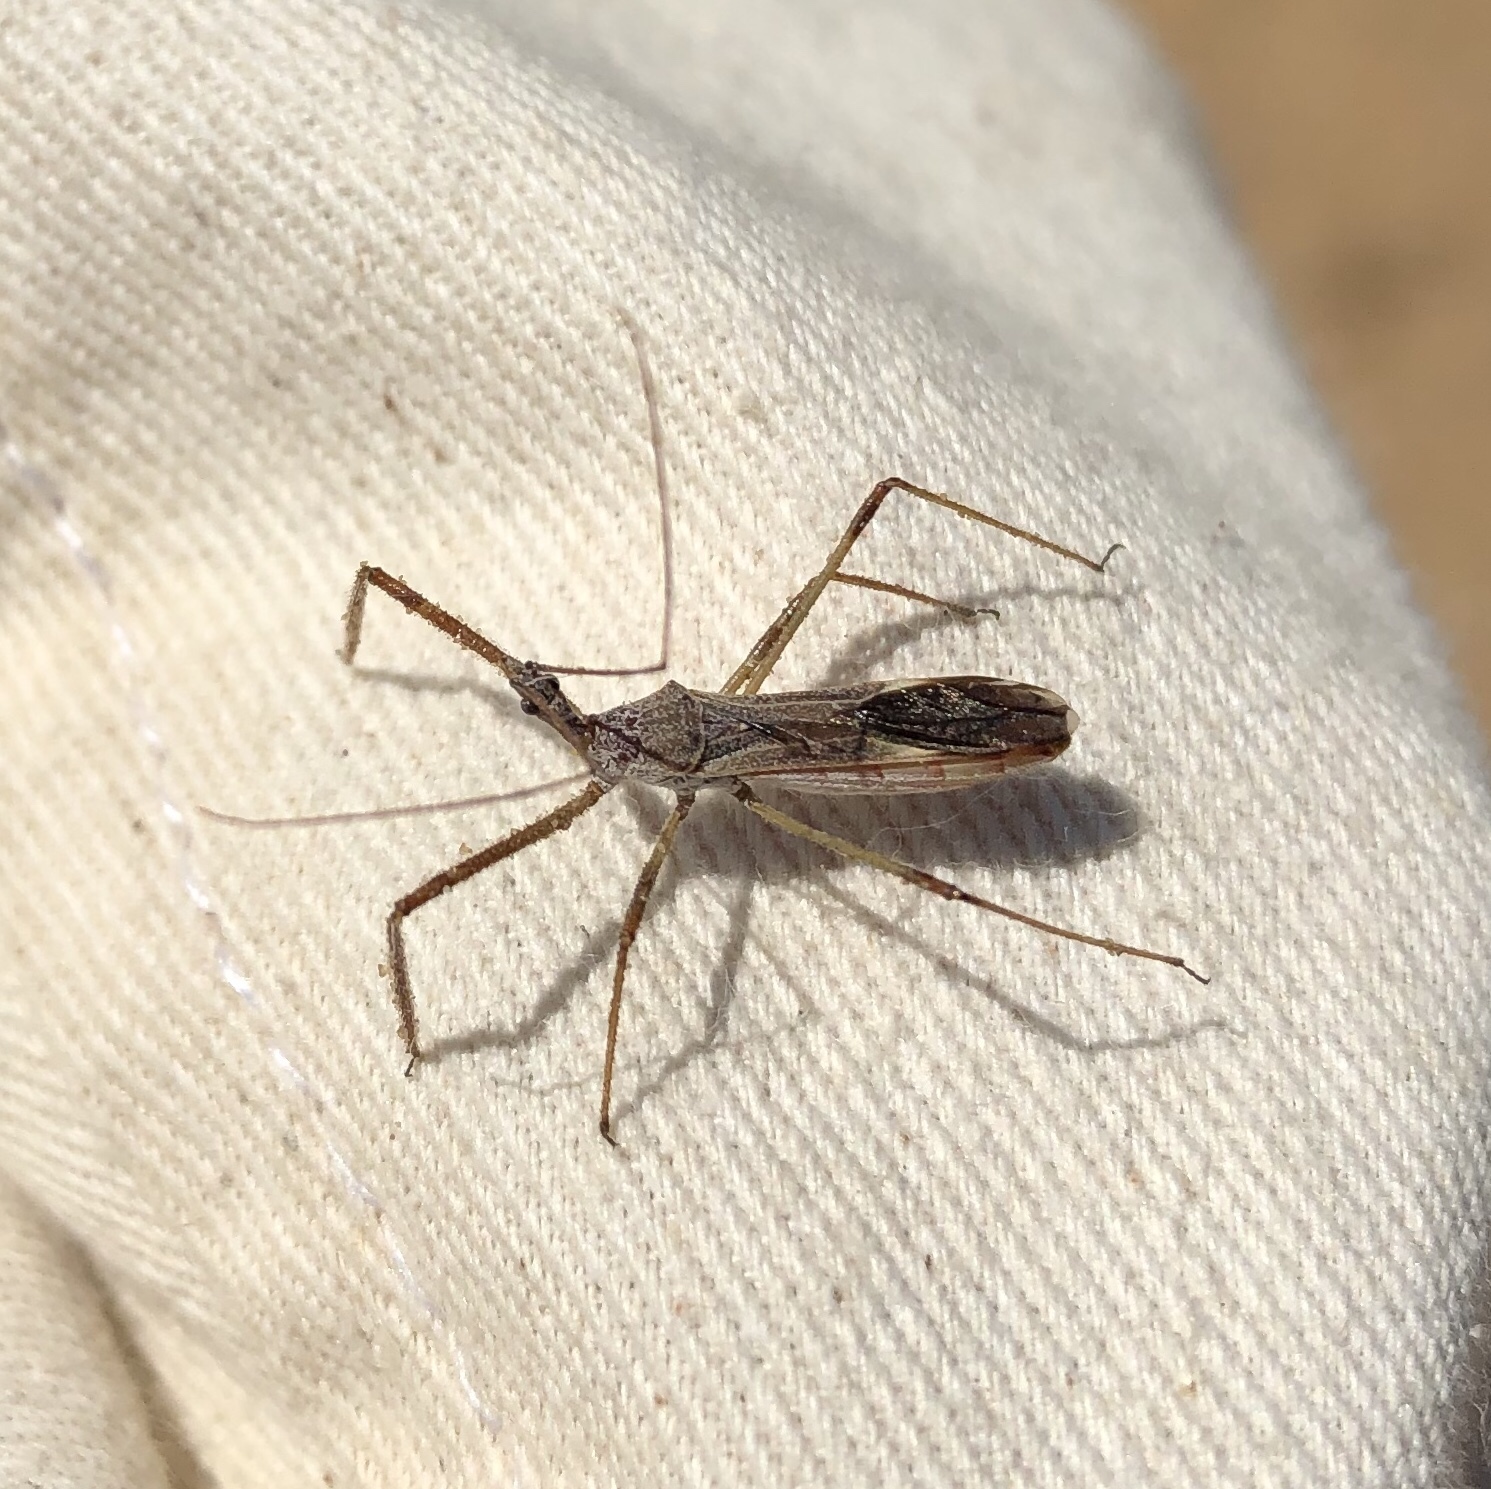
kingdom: Animalia
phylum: Arthropoda
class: Insecta
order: Hemiptera
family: Reduviidae
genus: Zelus
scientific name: Zelus tetracanthus
